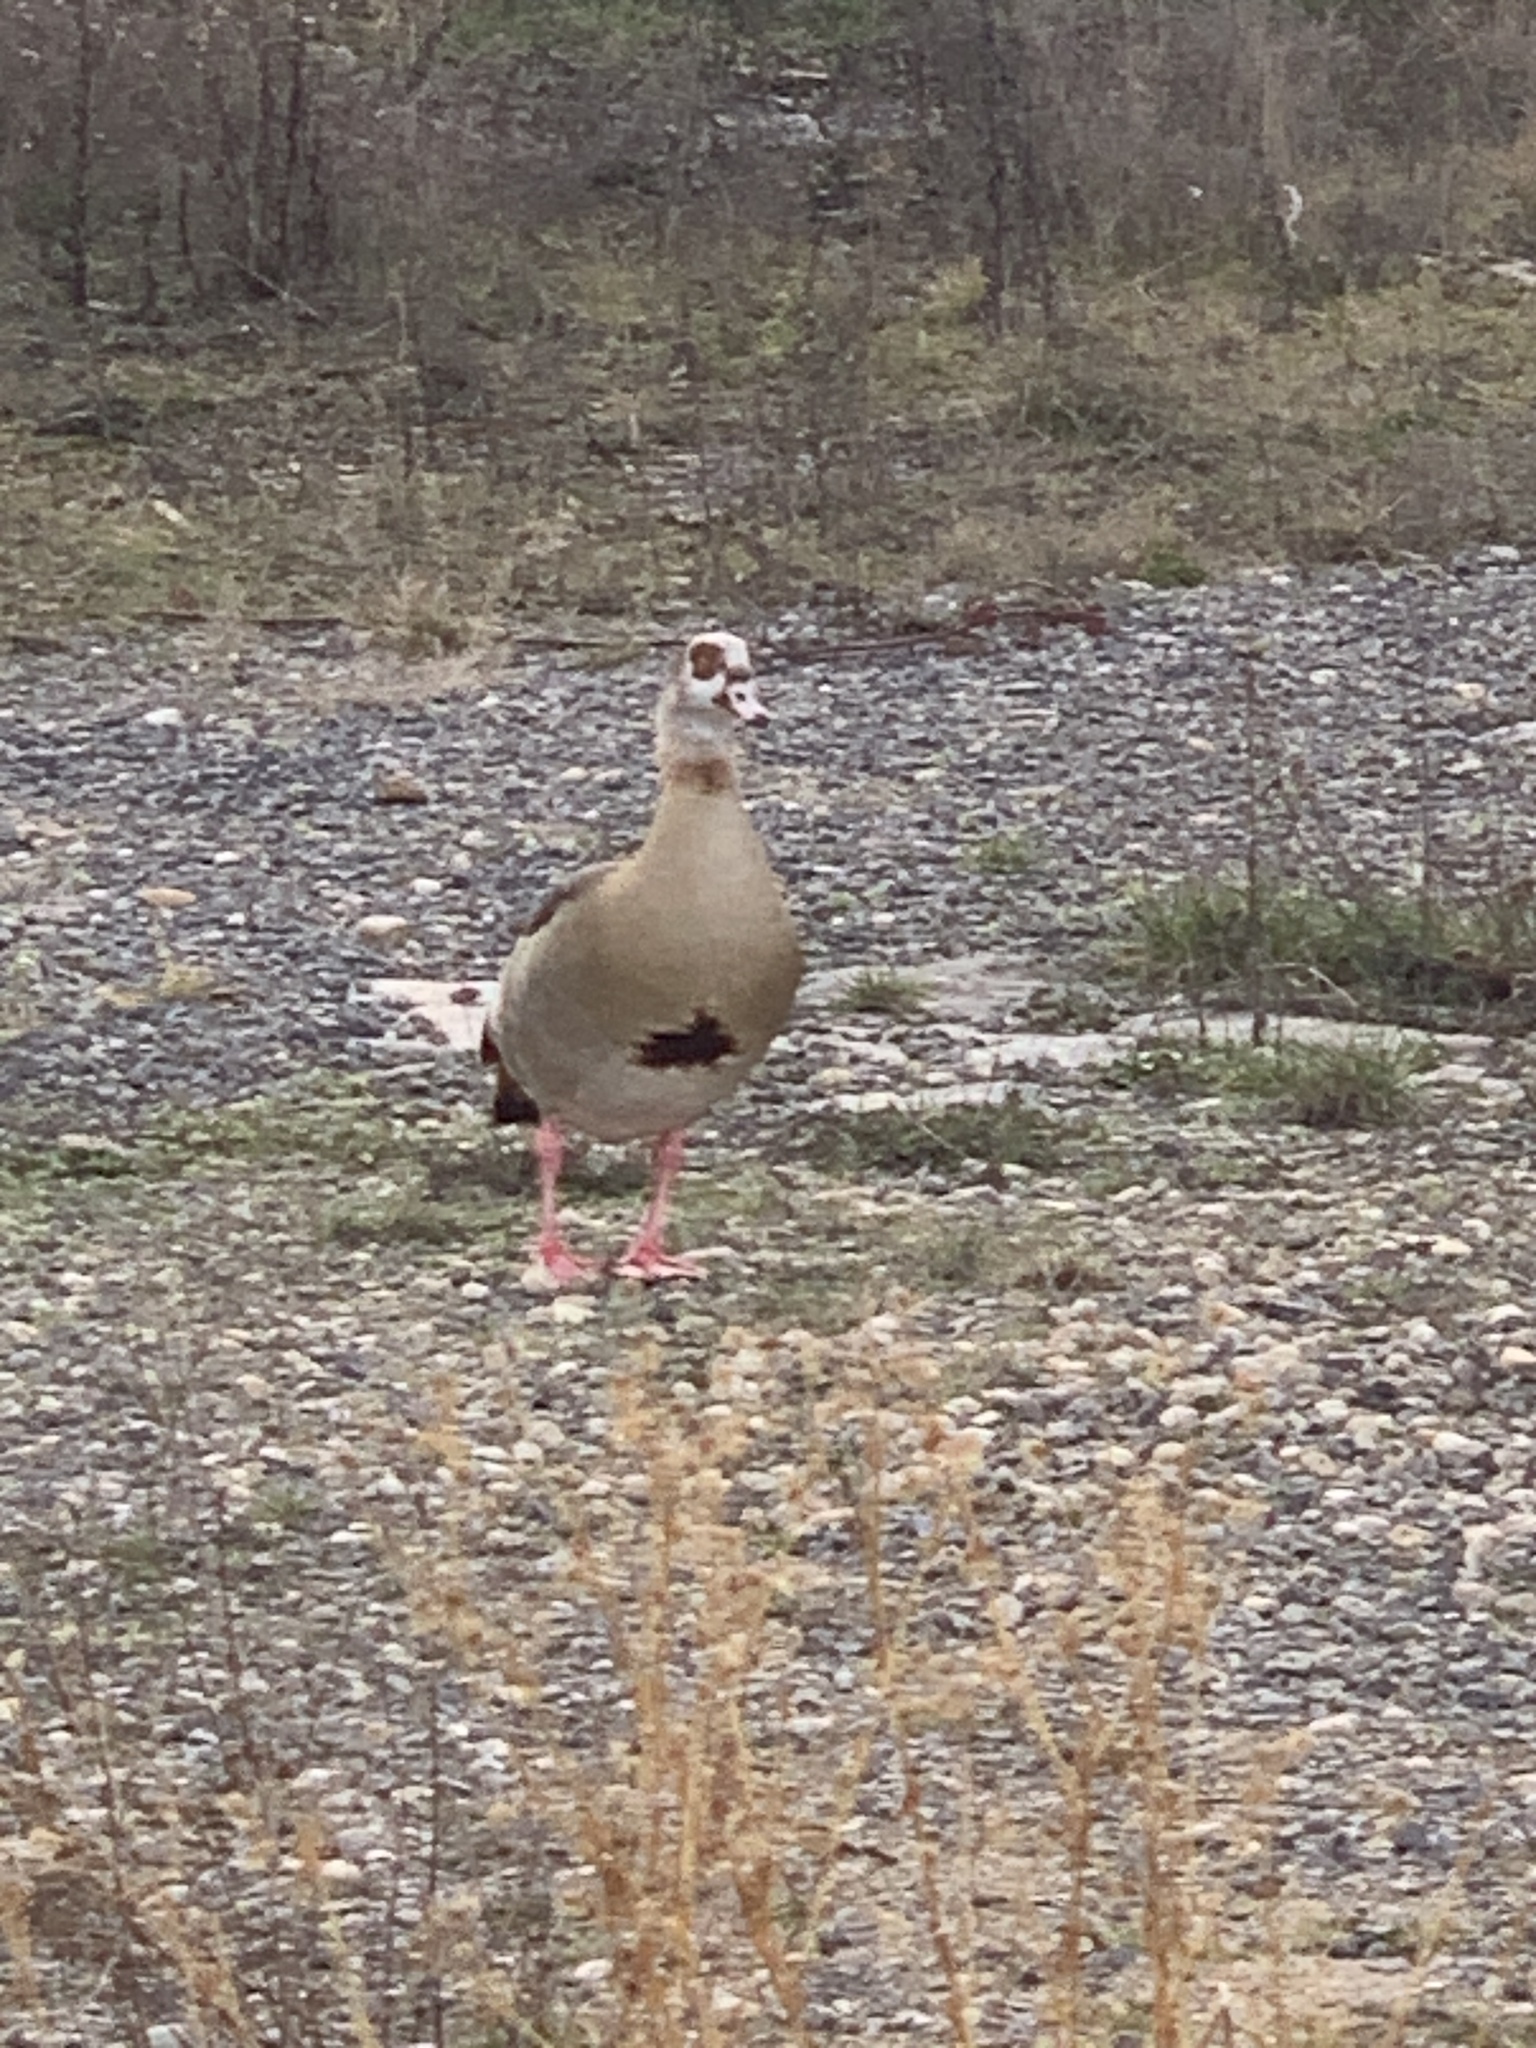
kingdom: Animalia
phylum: Chordata
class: Aves
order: Anseriformes
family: Anatidae
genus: Alopochen
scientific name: Alopochen aegyptiaca
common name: Egyptian goose
